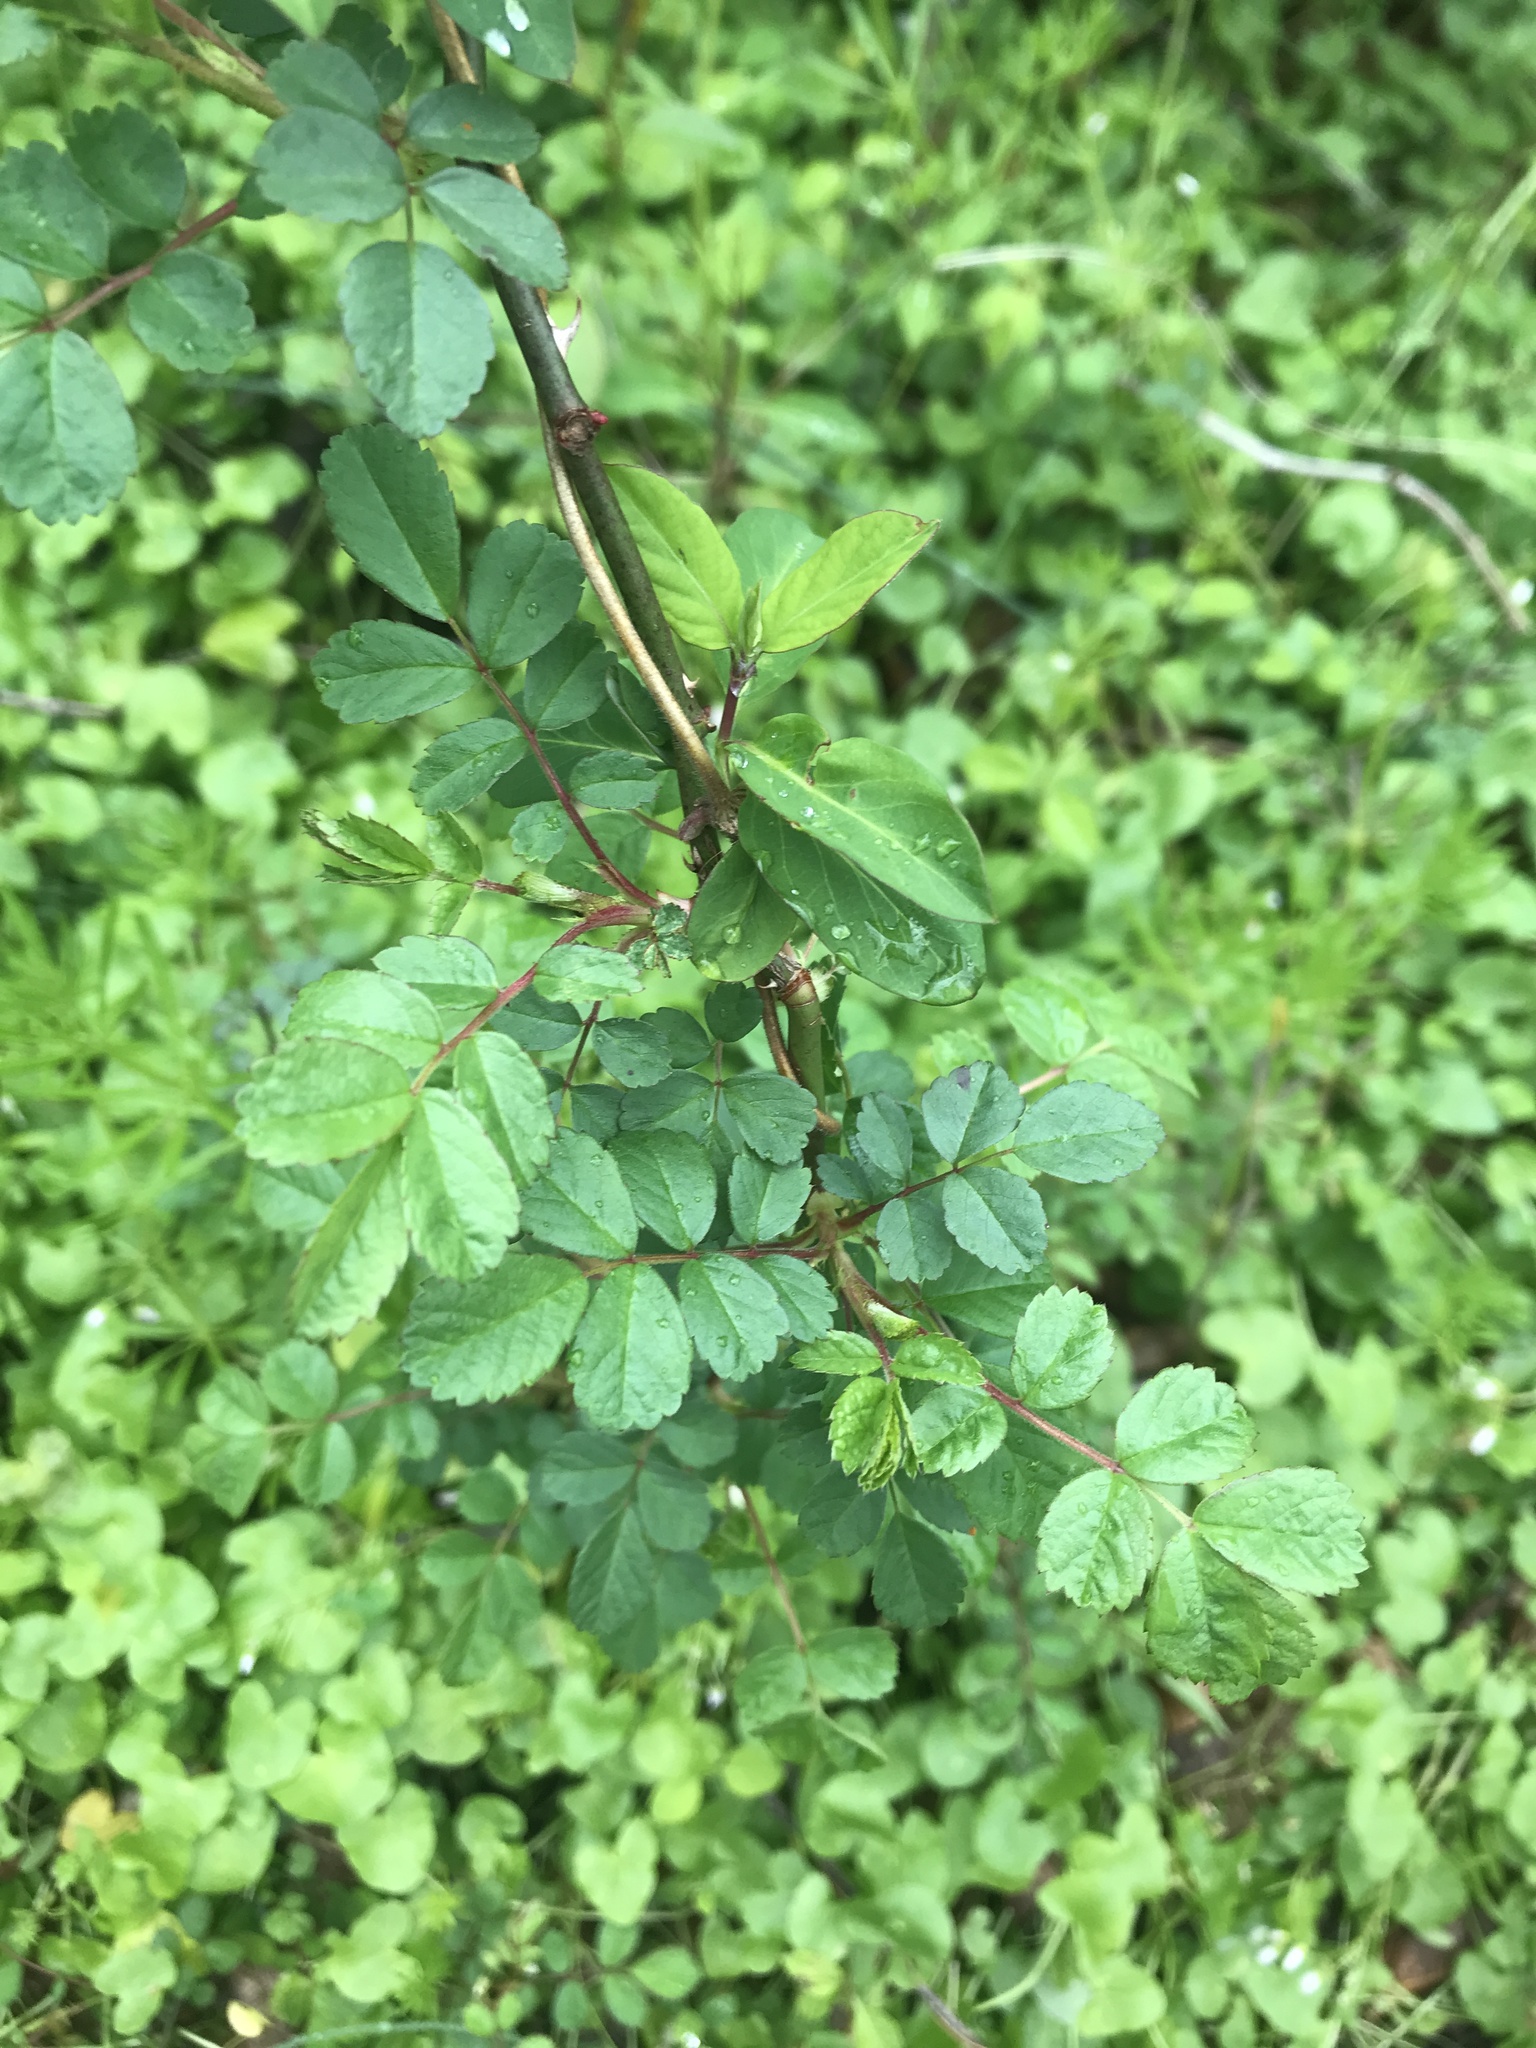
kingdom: Plantae
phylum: Tracheophyta
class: Magnoliopsida
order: Rosales
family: Rosaceae
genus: Rosa
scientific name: Rosa multiflora
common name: Multiflora rose
